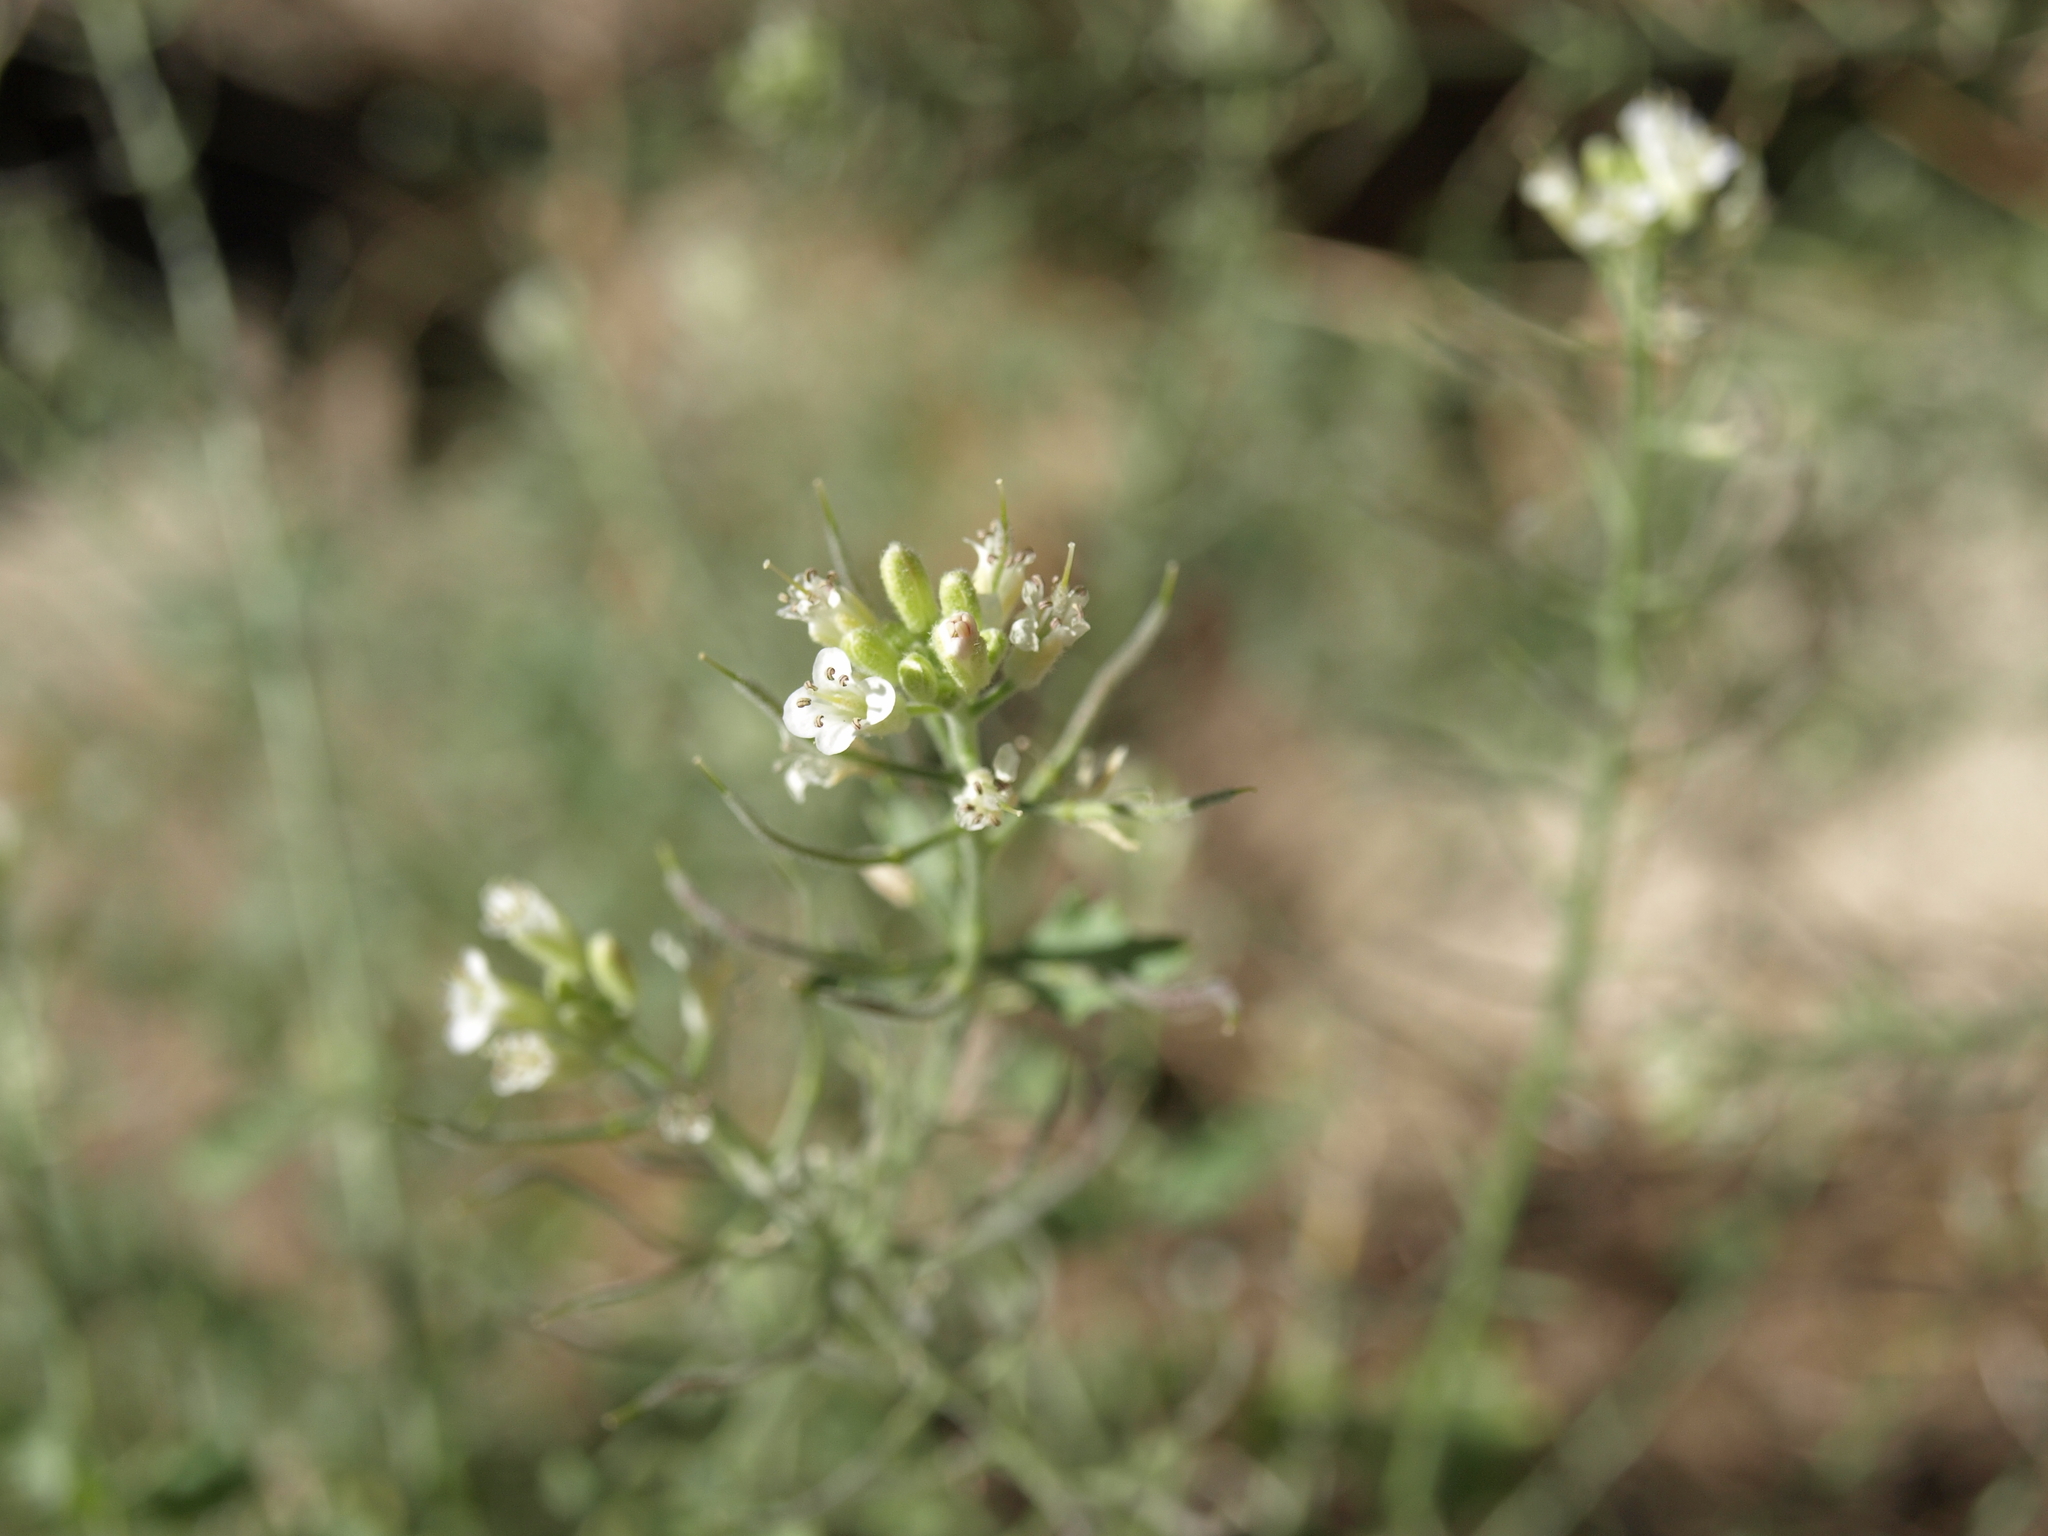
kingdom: Plantae
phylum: Tracheophyta
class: Magnoliopsida
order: Brassicales
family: Brassicaceae
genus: Halimolobos
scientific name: Halimolobos jaegeri
